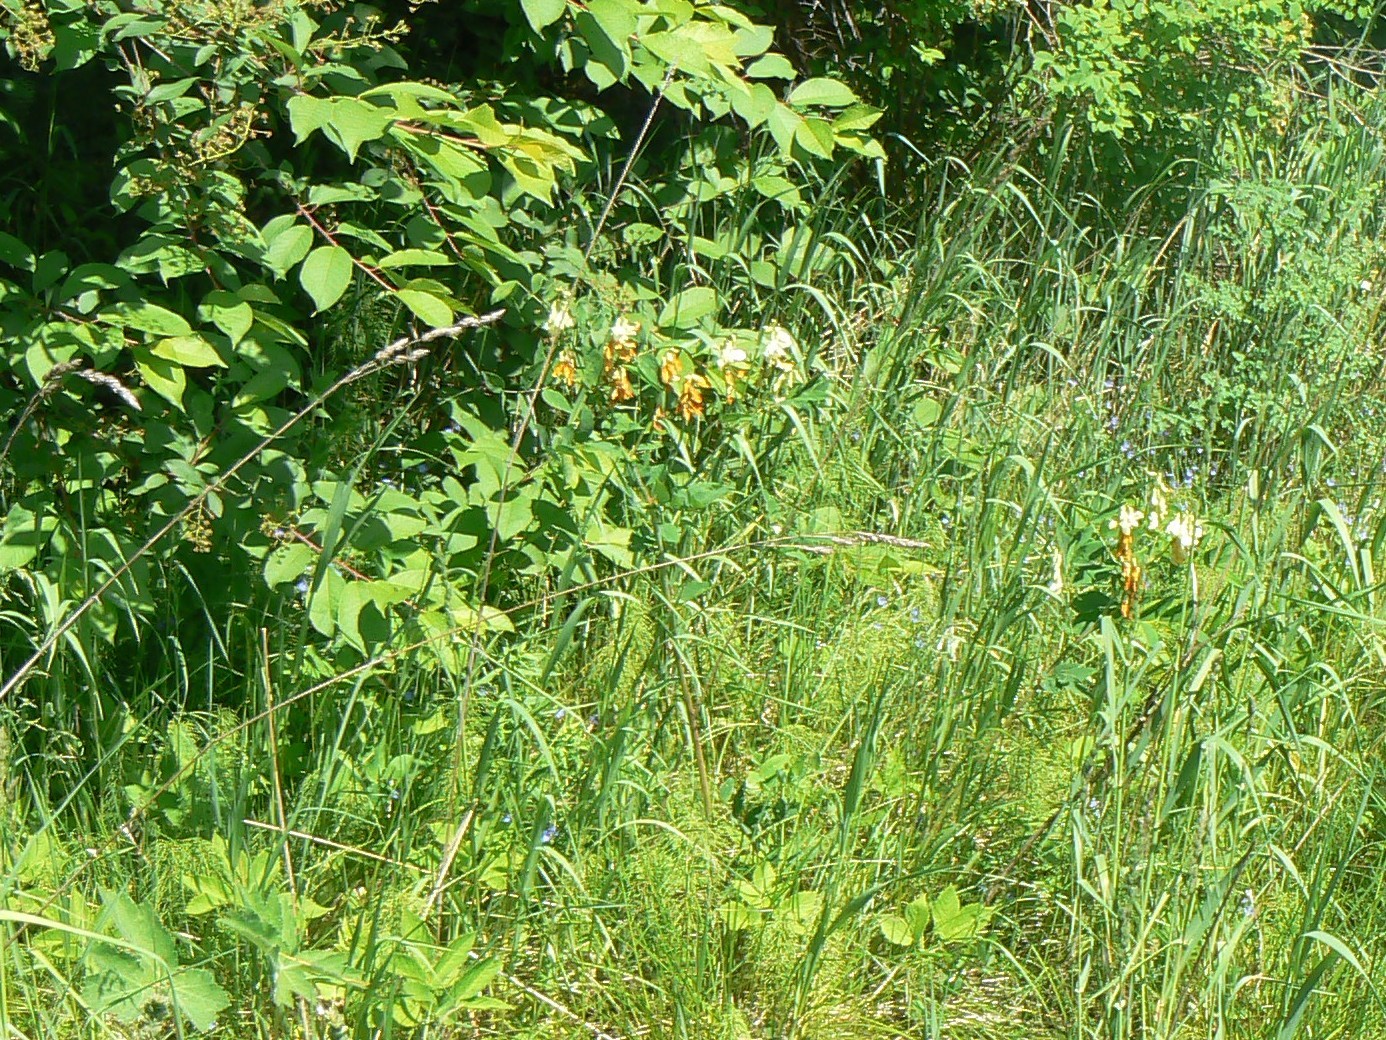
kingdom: Plantae
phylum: Tracheophyta
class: Magnoliopsida
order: Fabales
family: Fabaceae
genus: Lathyrus
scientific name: Lathyrus gmelinii
